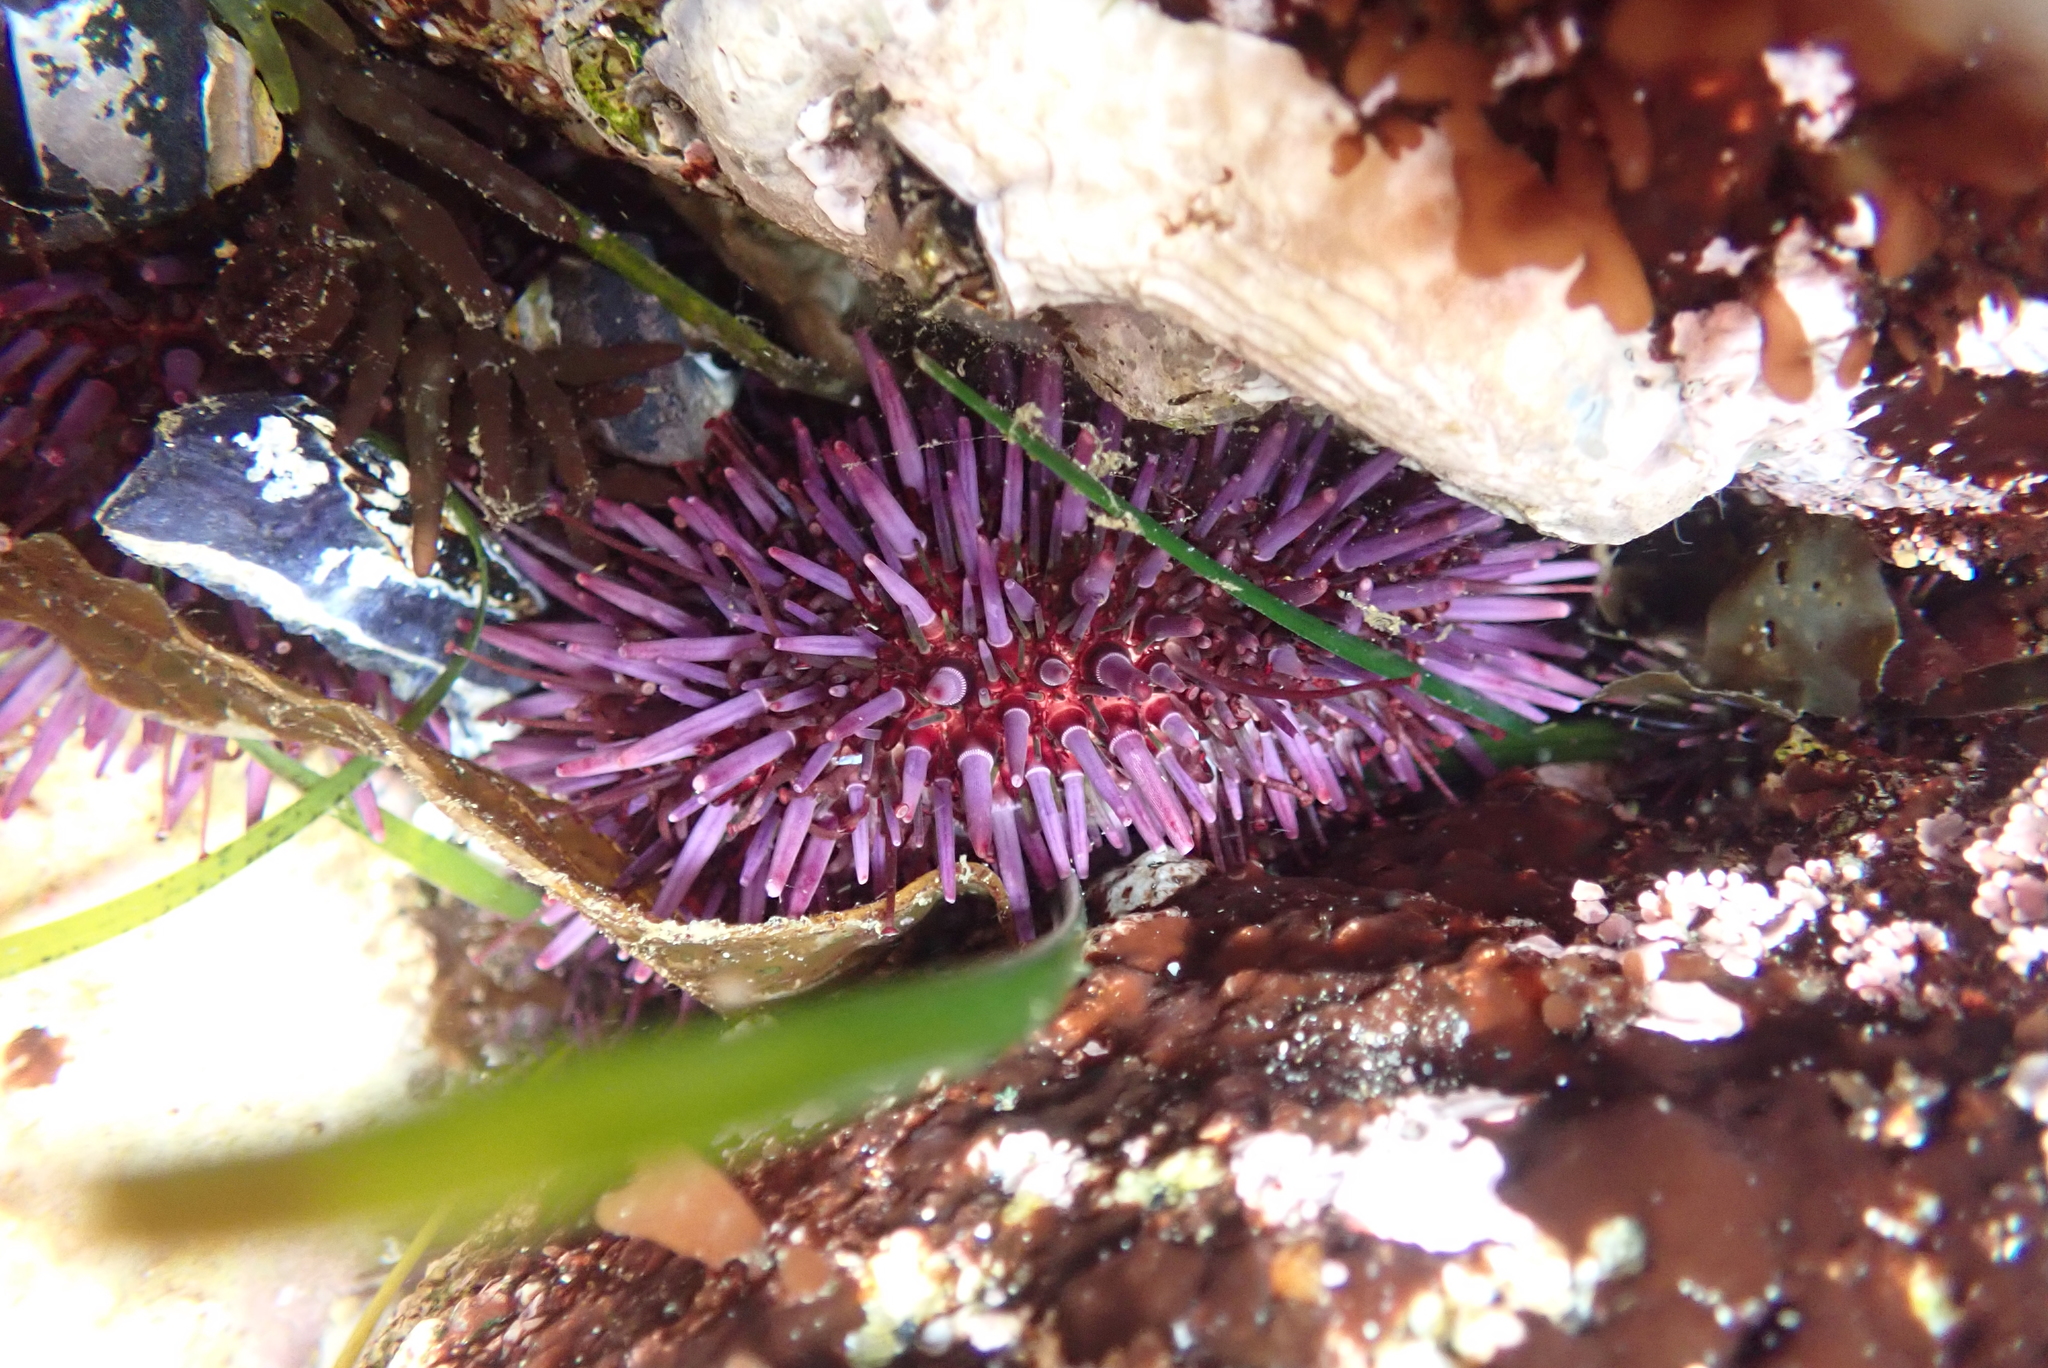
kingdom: Animalia
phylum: Echinodermata
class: Echinoidea
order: Camarodonta
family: Strongylocentrotidae
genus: Strongylocentrotus
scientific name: Strongylocentrotus purpuratus
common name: Purple sea urchin
